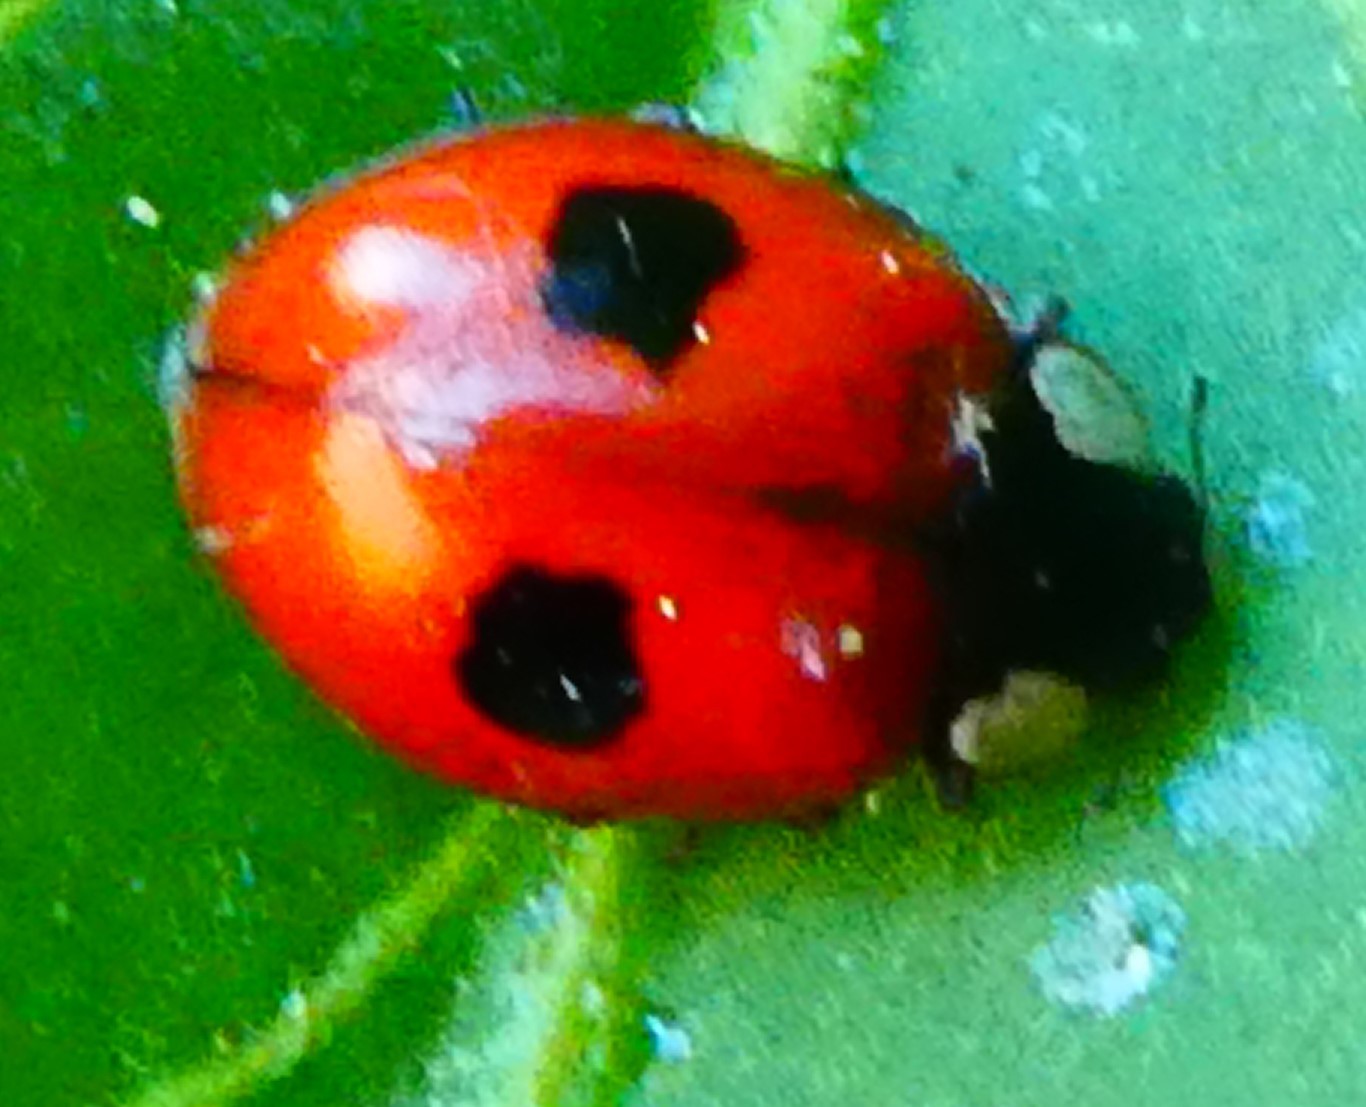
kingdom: Animalia
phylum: Arthropoda
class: Insecta
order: Coleoptera
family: Coccinellidae
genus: Adalia
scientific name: Adalia bipunctata
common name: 2-spot ladybird
